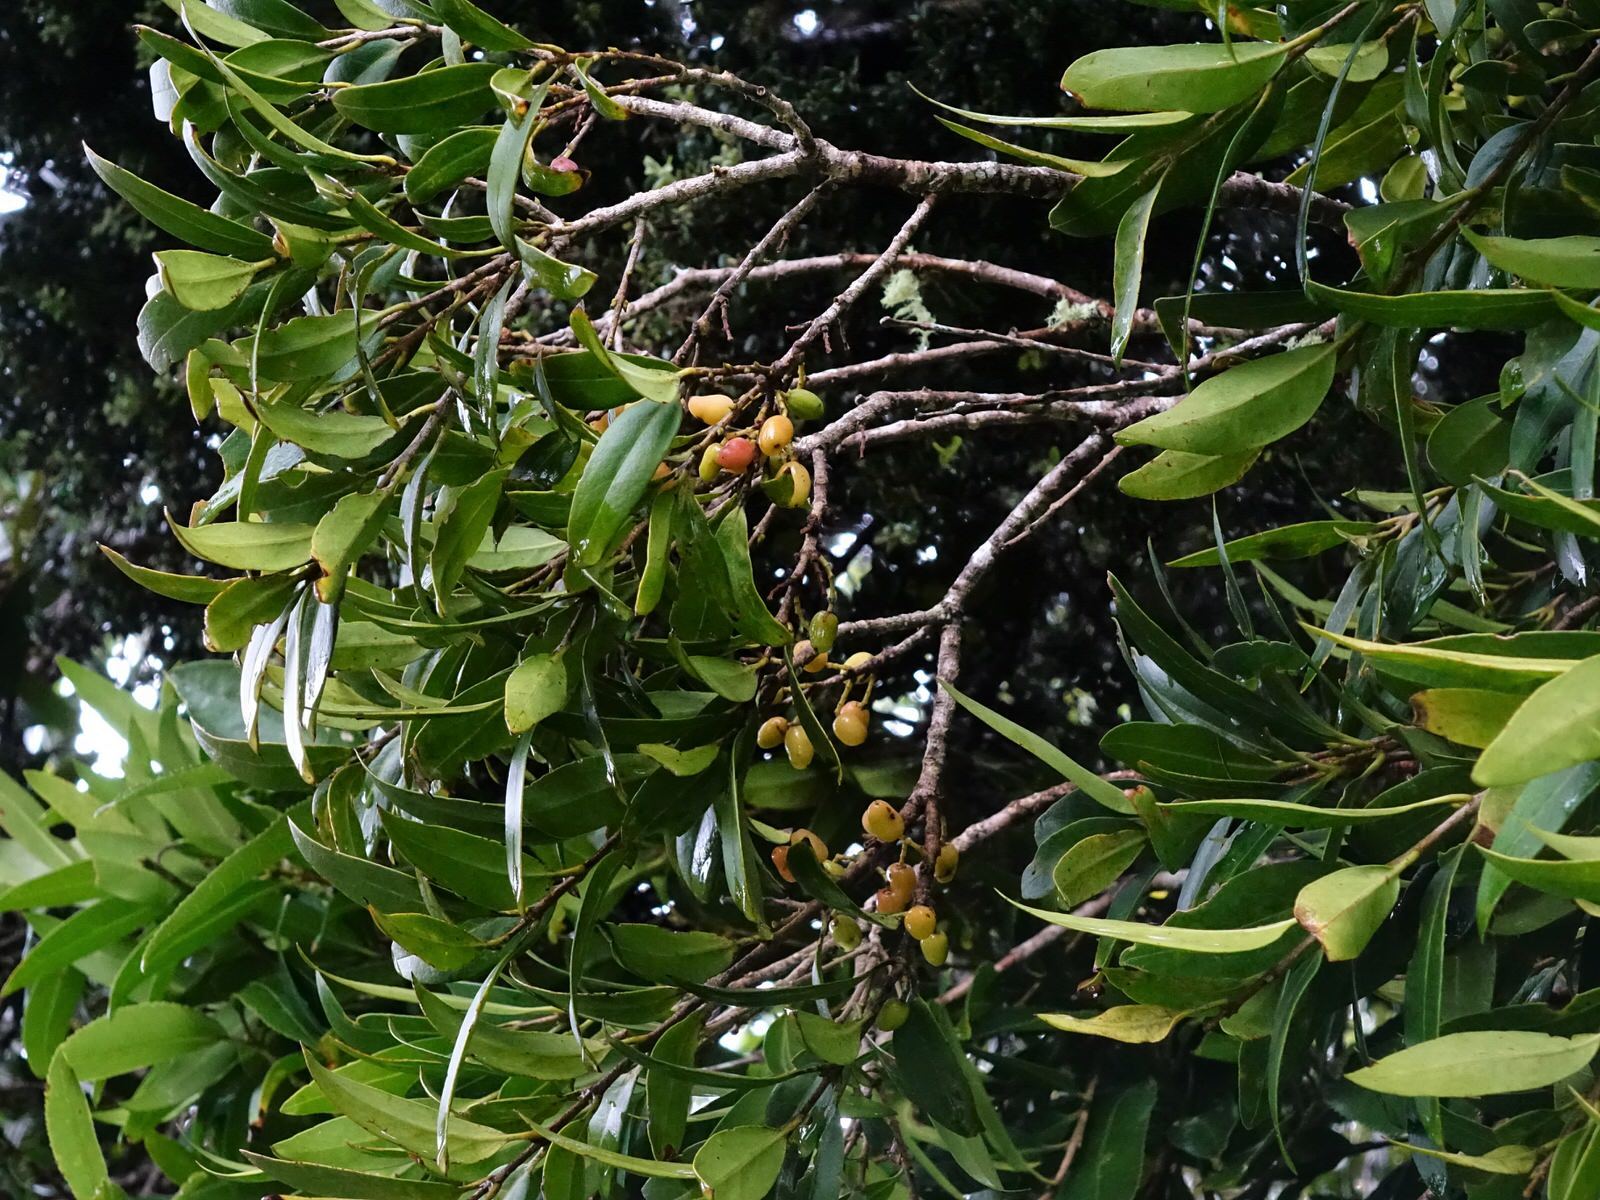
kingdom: Plantae
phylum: Tracheophyta
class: Magnoliopsida
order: Lamiales
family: Oleaceae
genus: Nestegis
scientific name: Nestegis lanceolata
